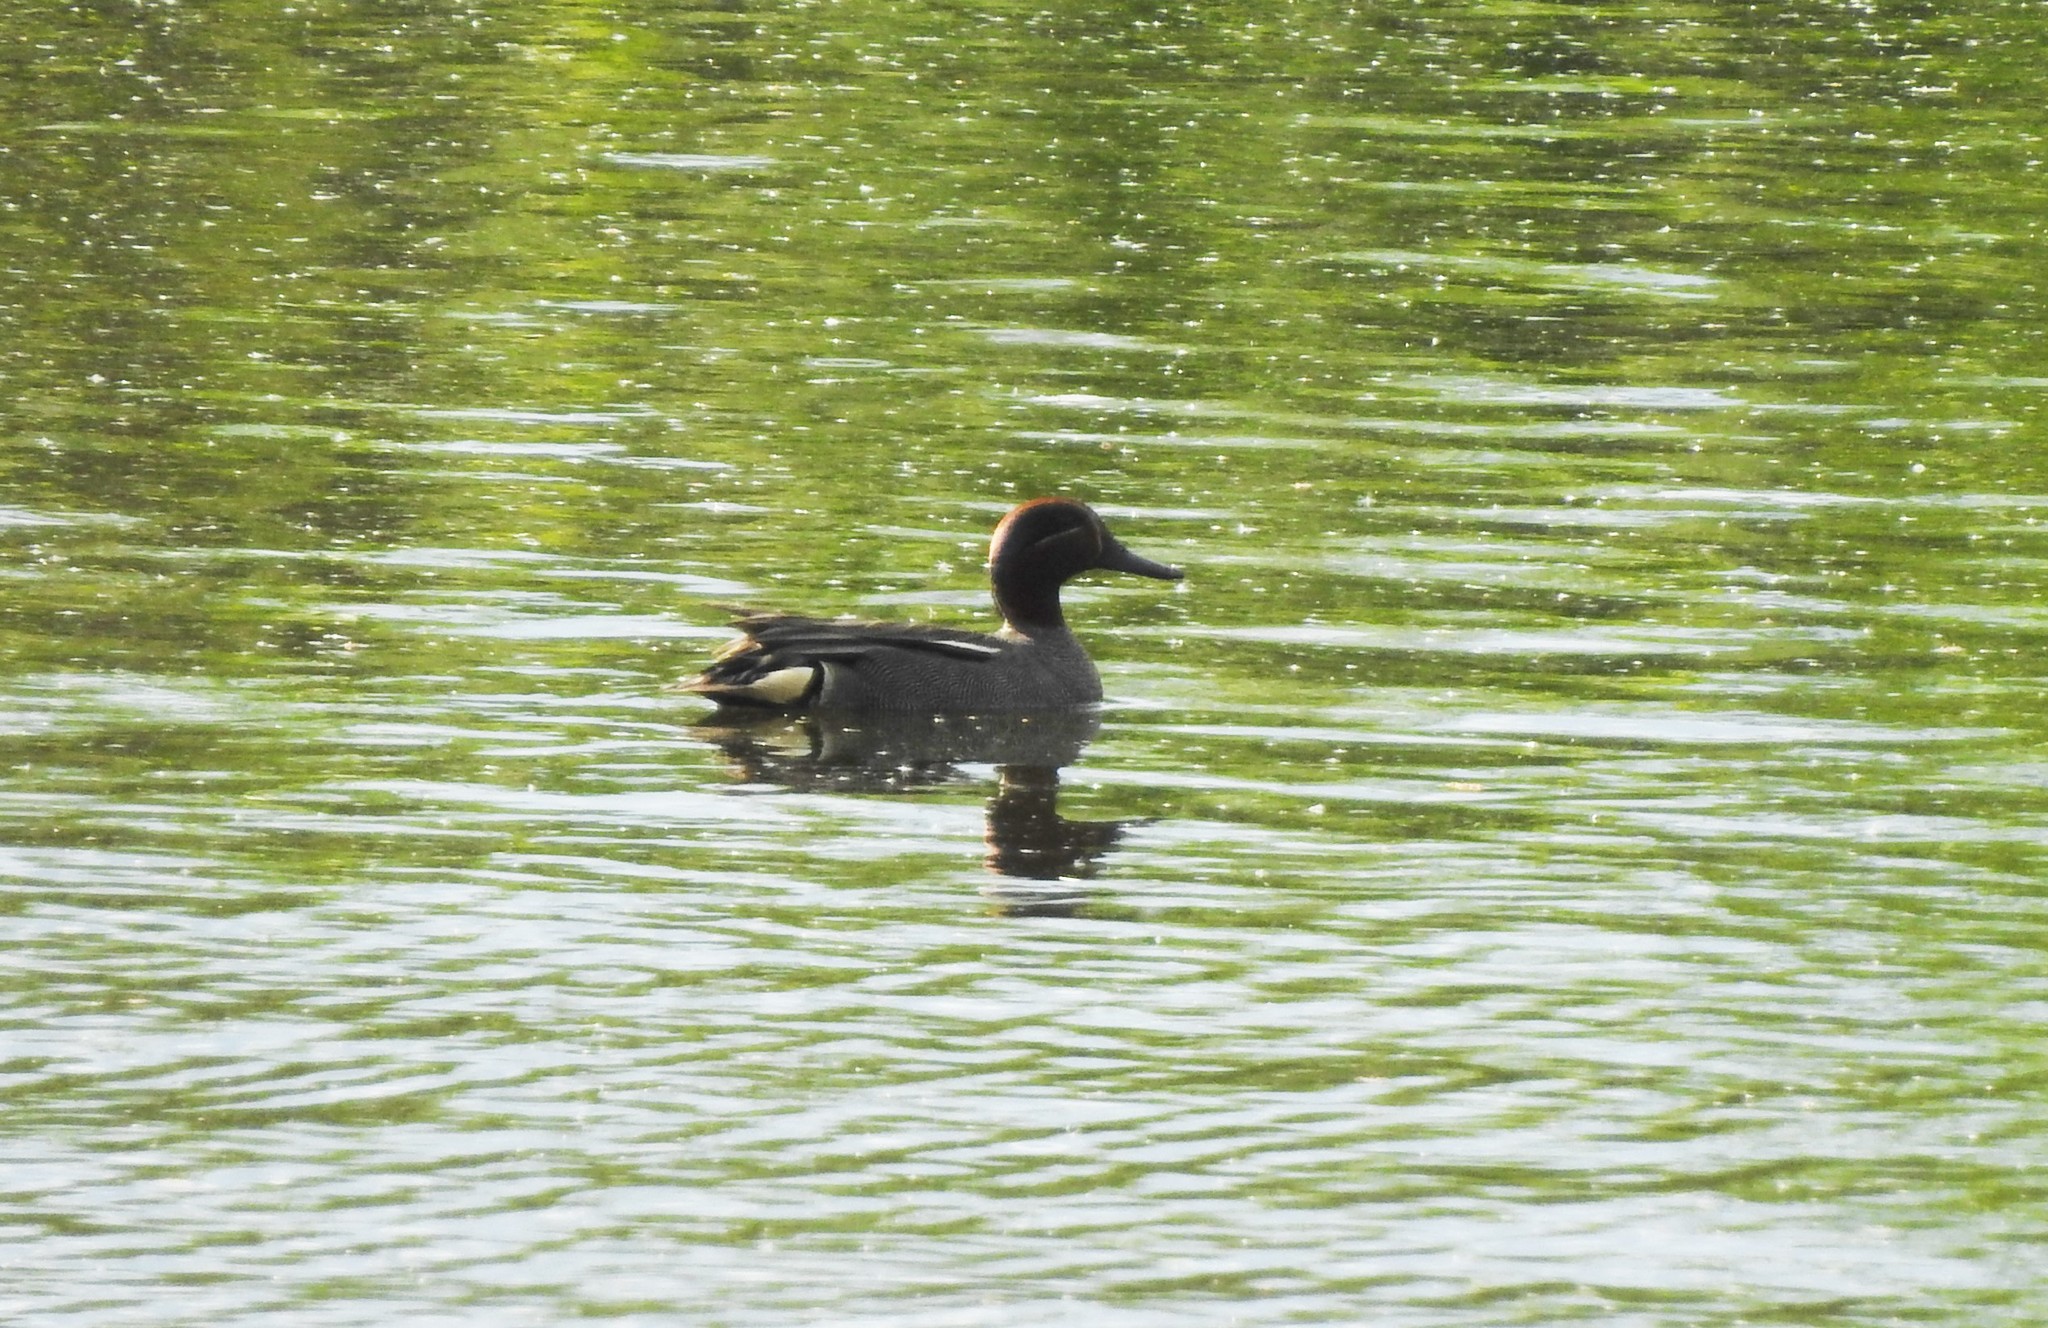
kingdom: Animalia
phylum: Chordata
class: Aves
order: Anseriformes
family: Anatidae
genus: Anas
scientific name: Anas crecca
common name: Eurasian teal
